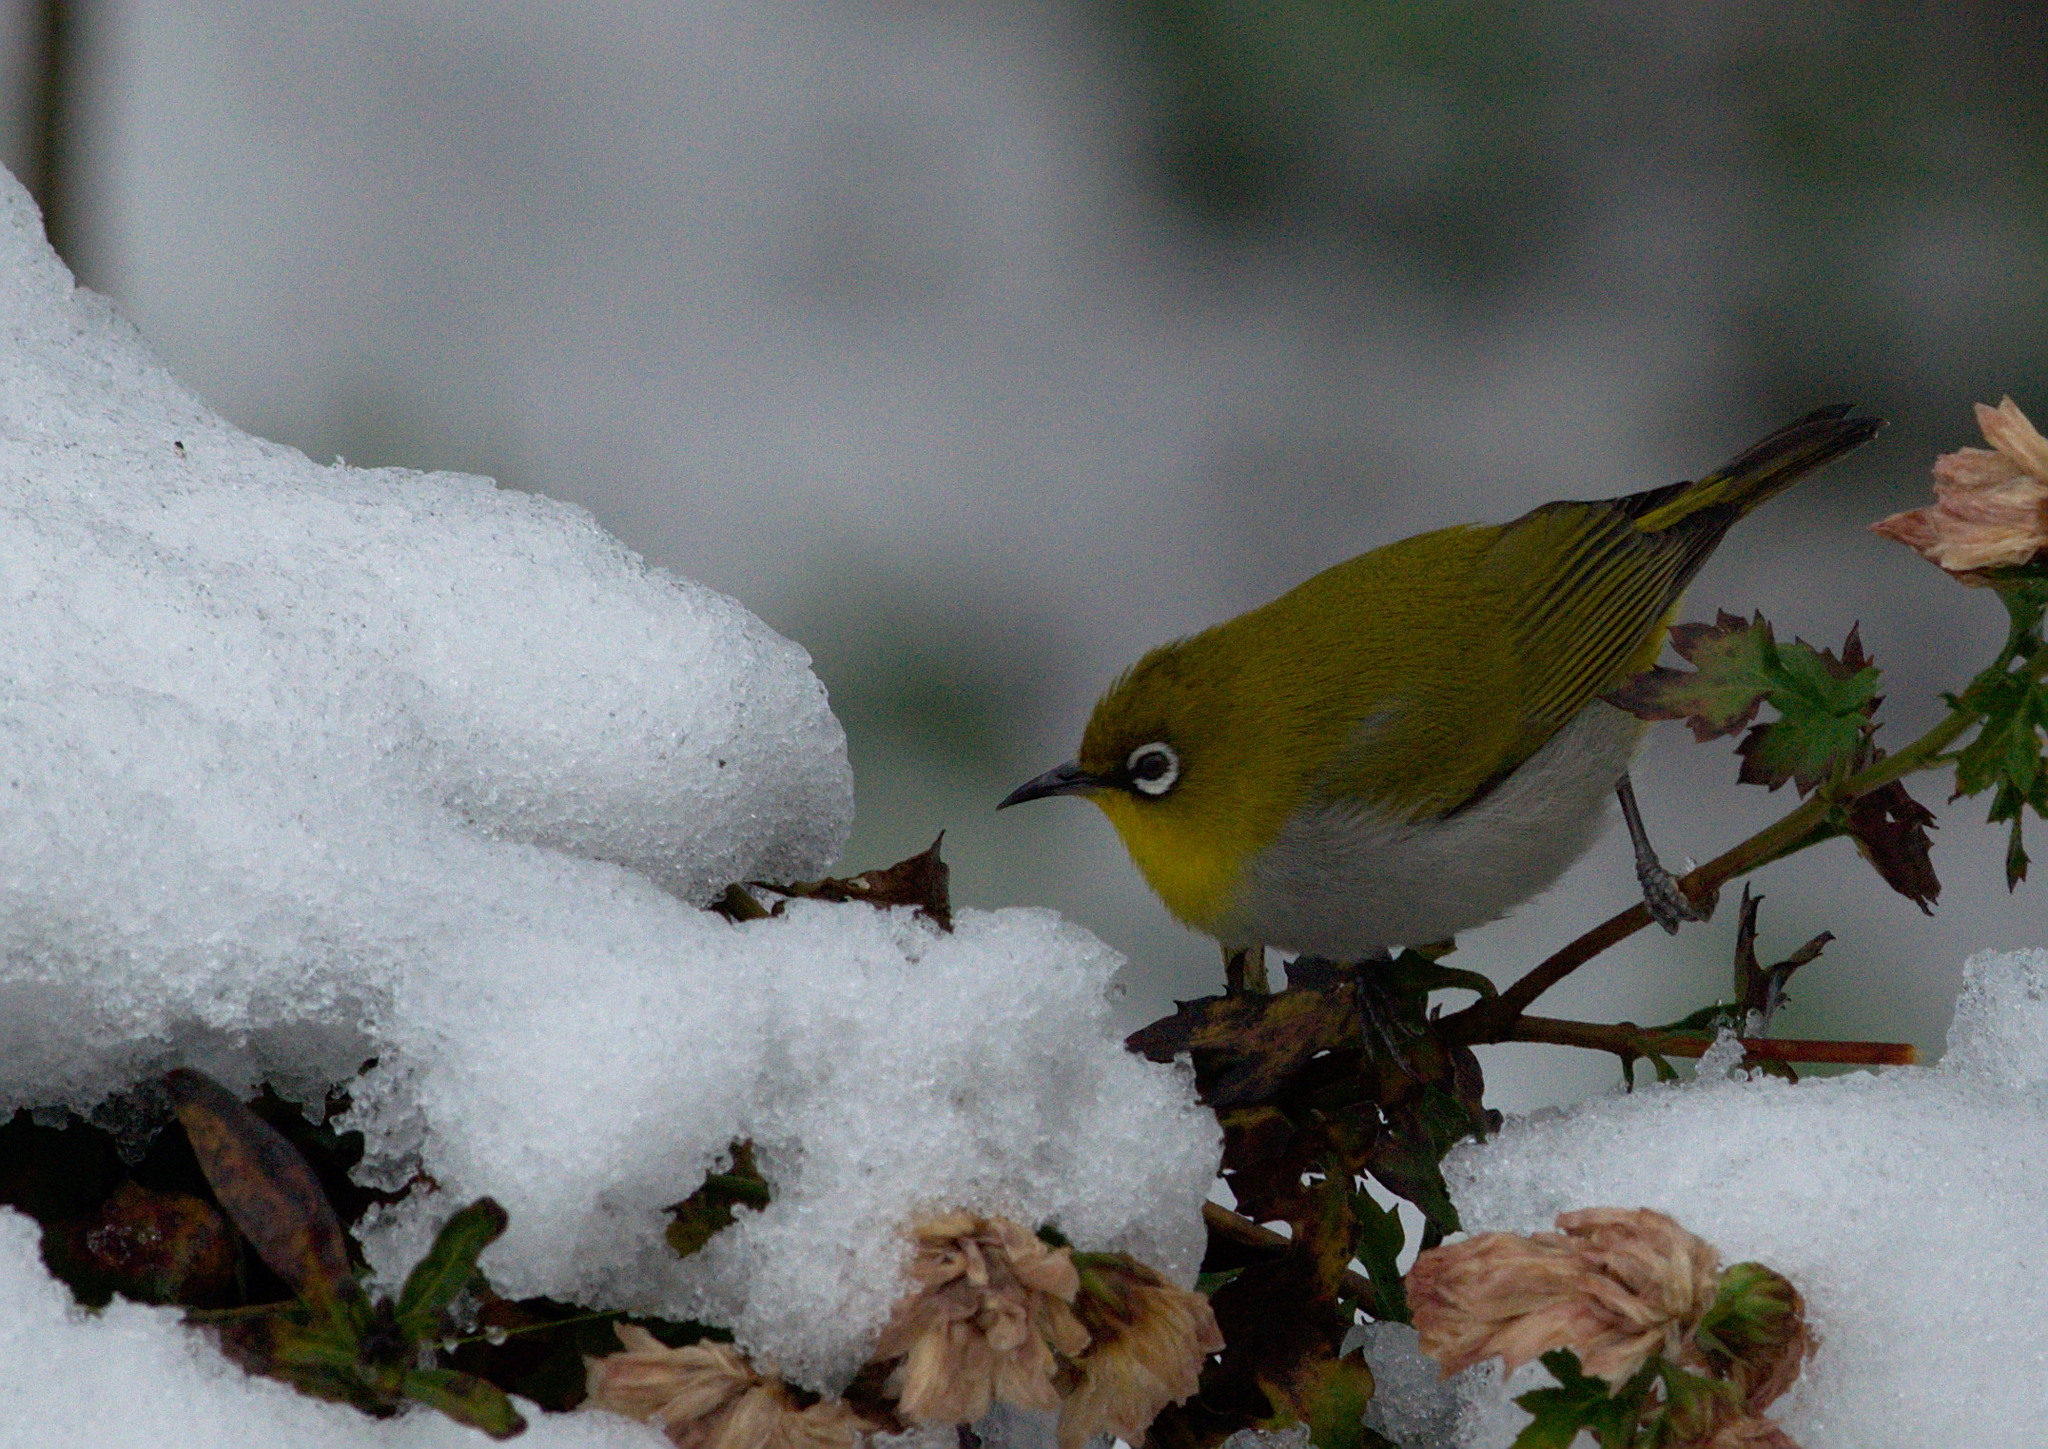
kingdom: Animalia
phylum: Chordata
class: Aves
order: Passeriformes
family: Zosteropidae
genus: Zosterops
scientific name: Zosterops palpebrosus
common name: Oriental white-eye
